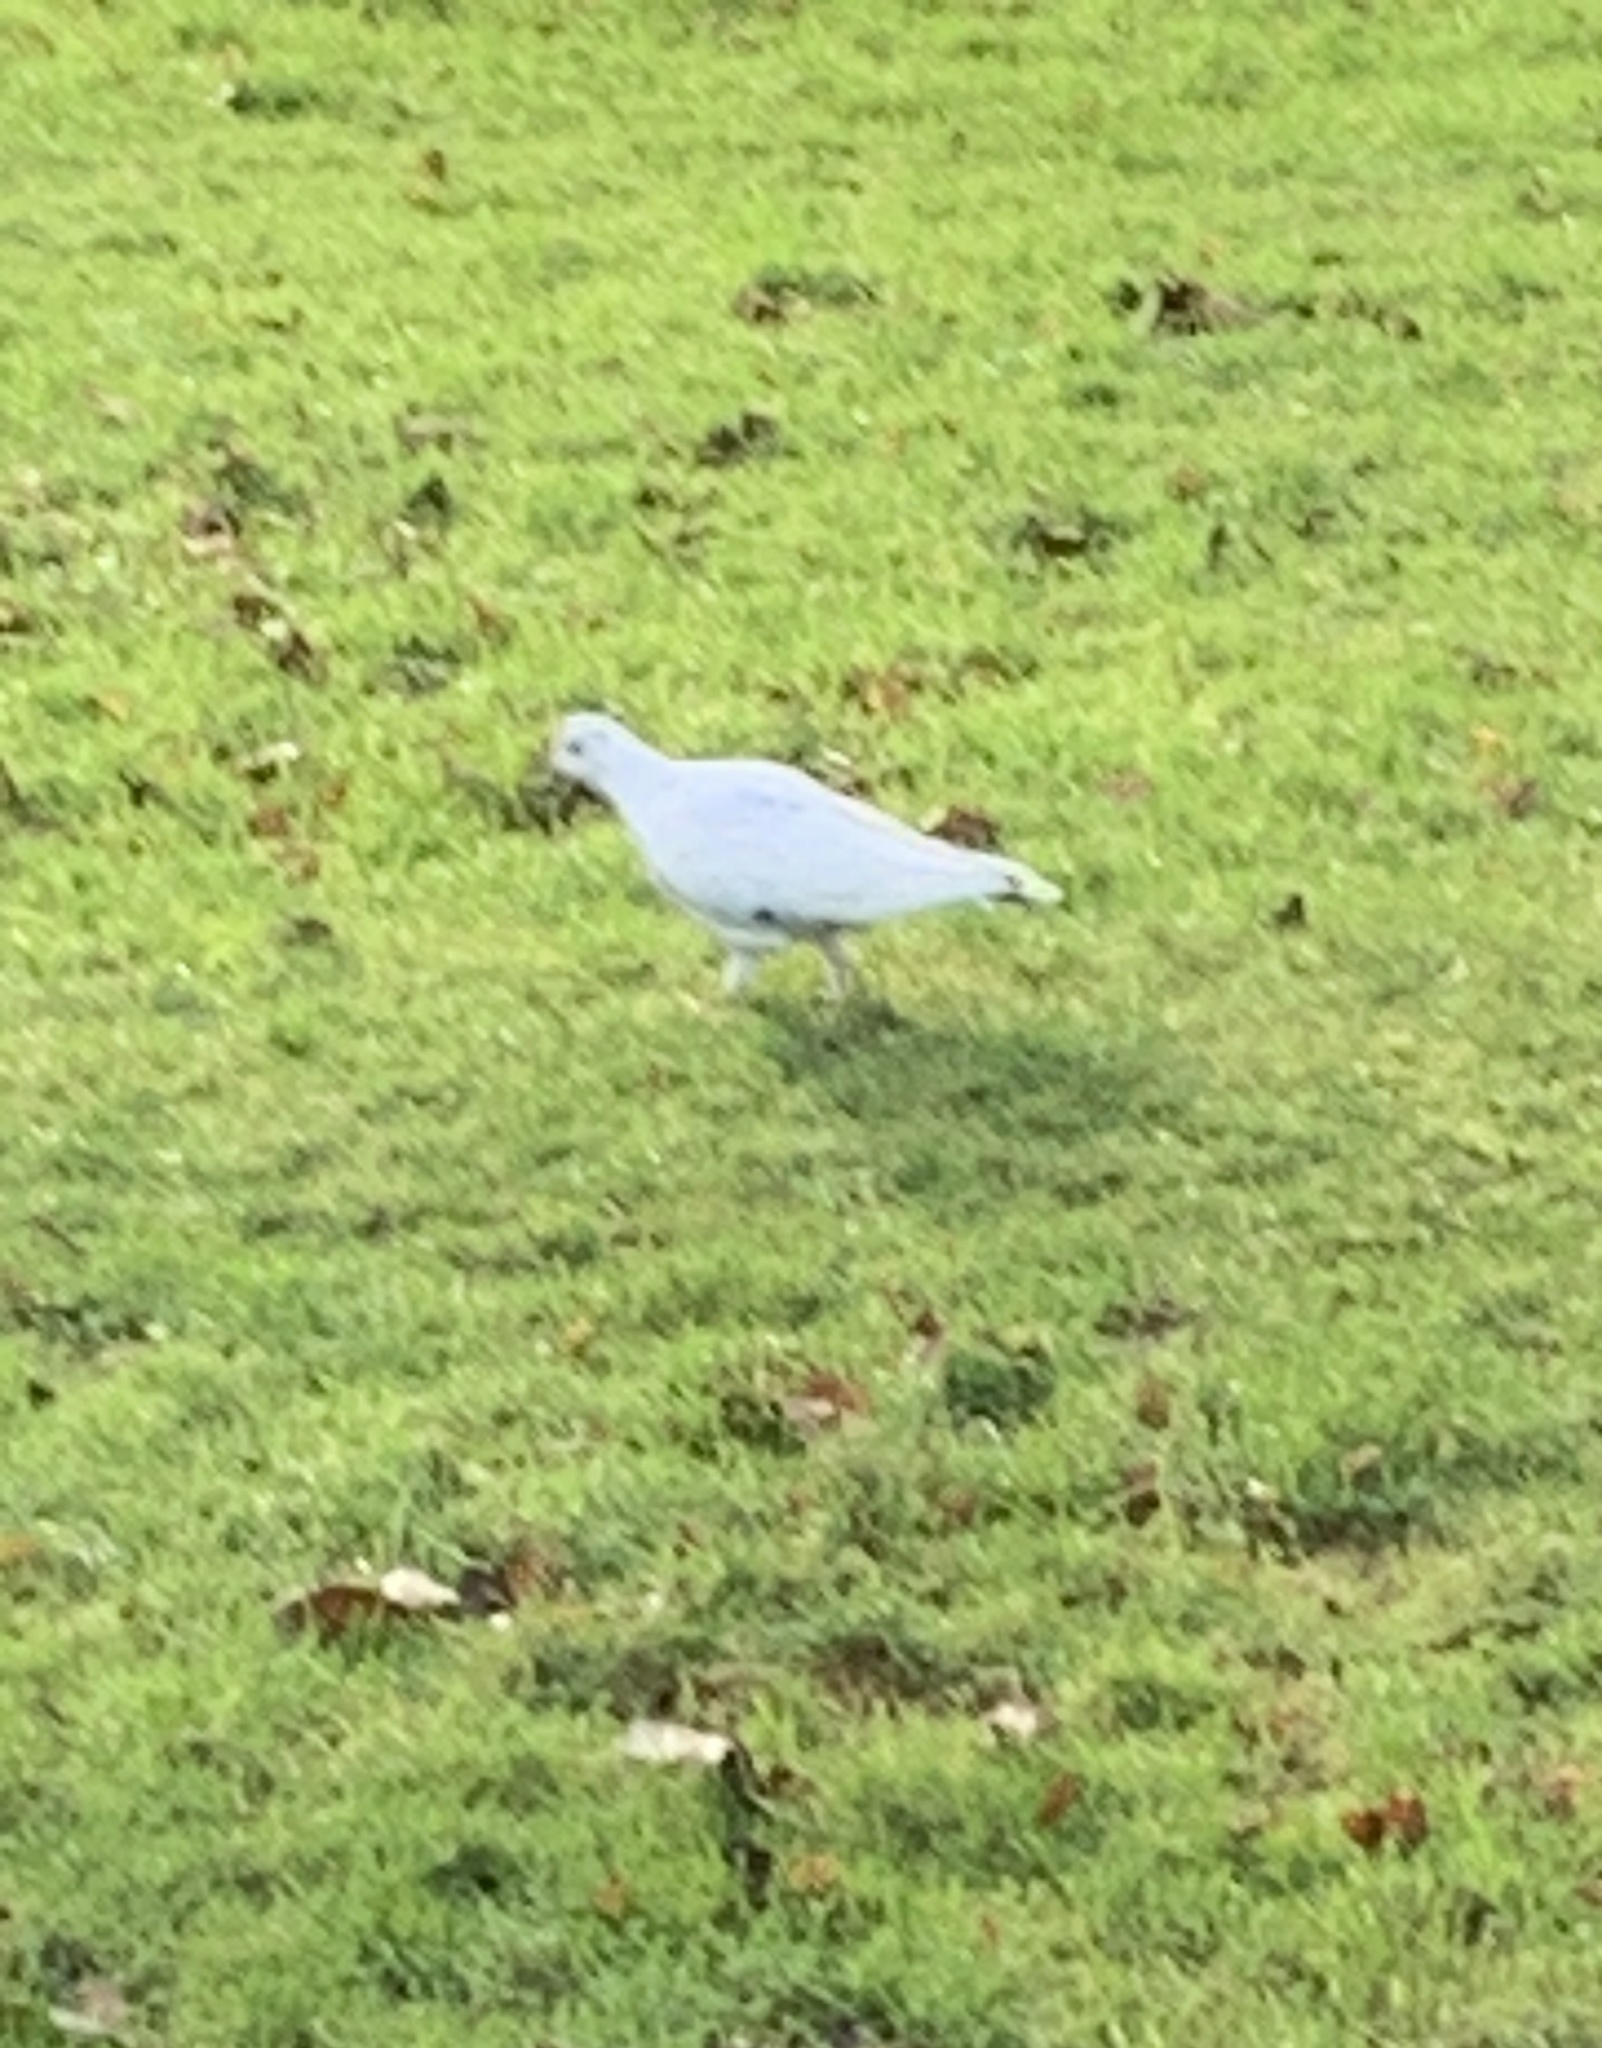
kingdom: Animalia
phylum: Chordata
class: Aves
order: Columbiformes
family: Columbidae
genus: Columba
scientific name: Columba livia
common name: Rock pigeon
